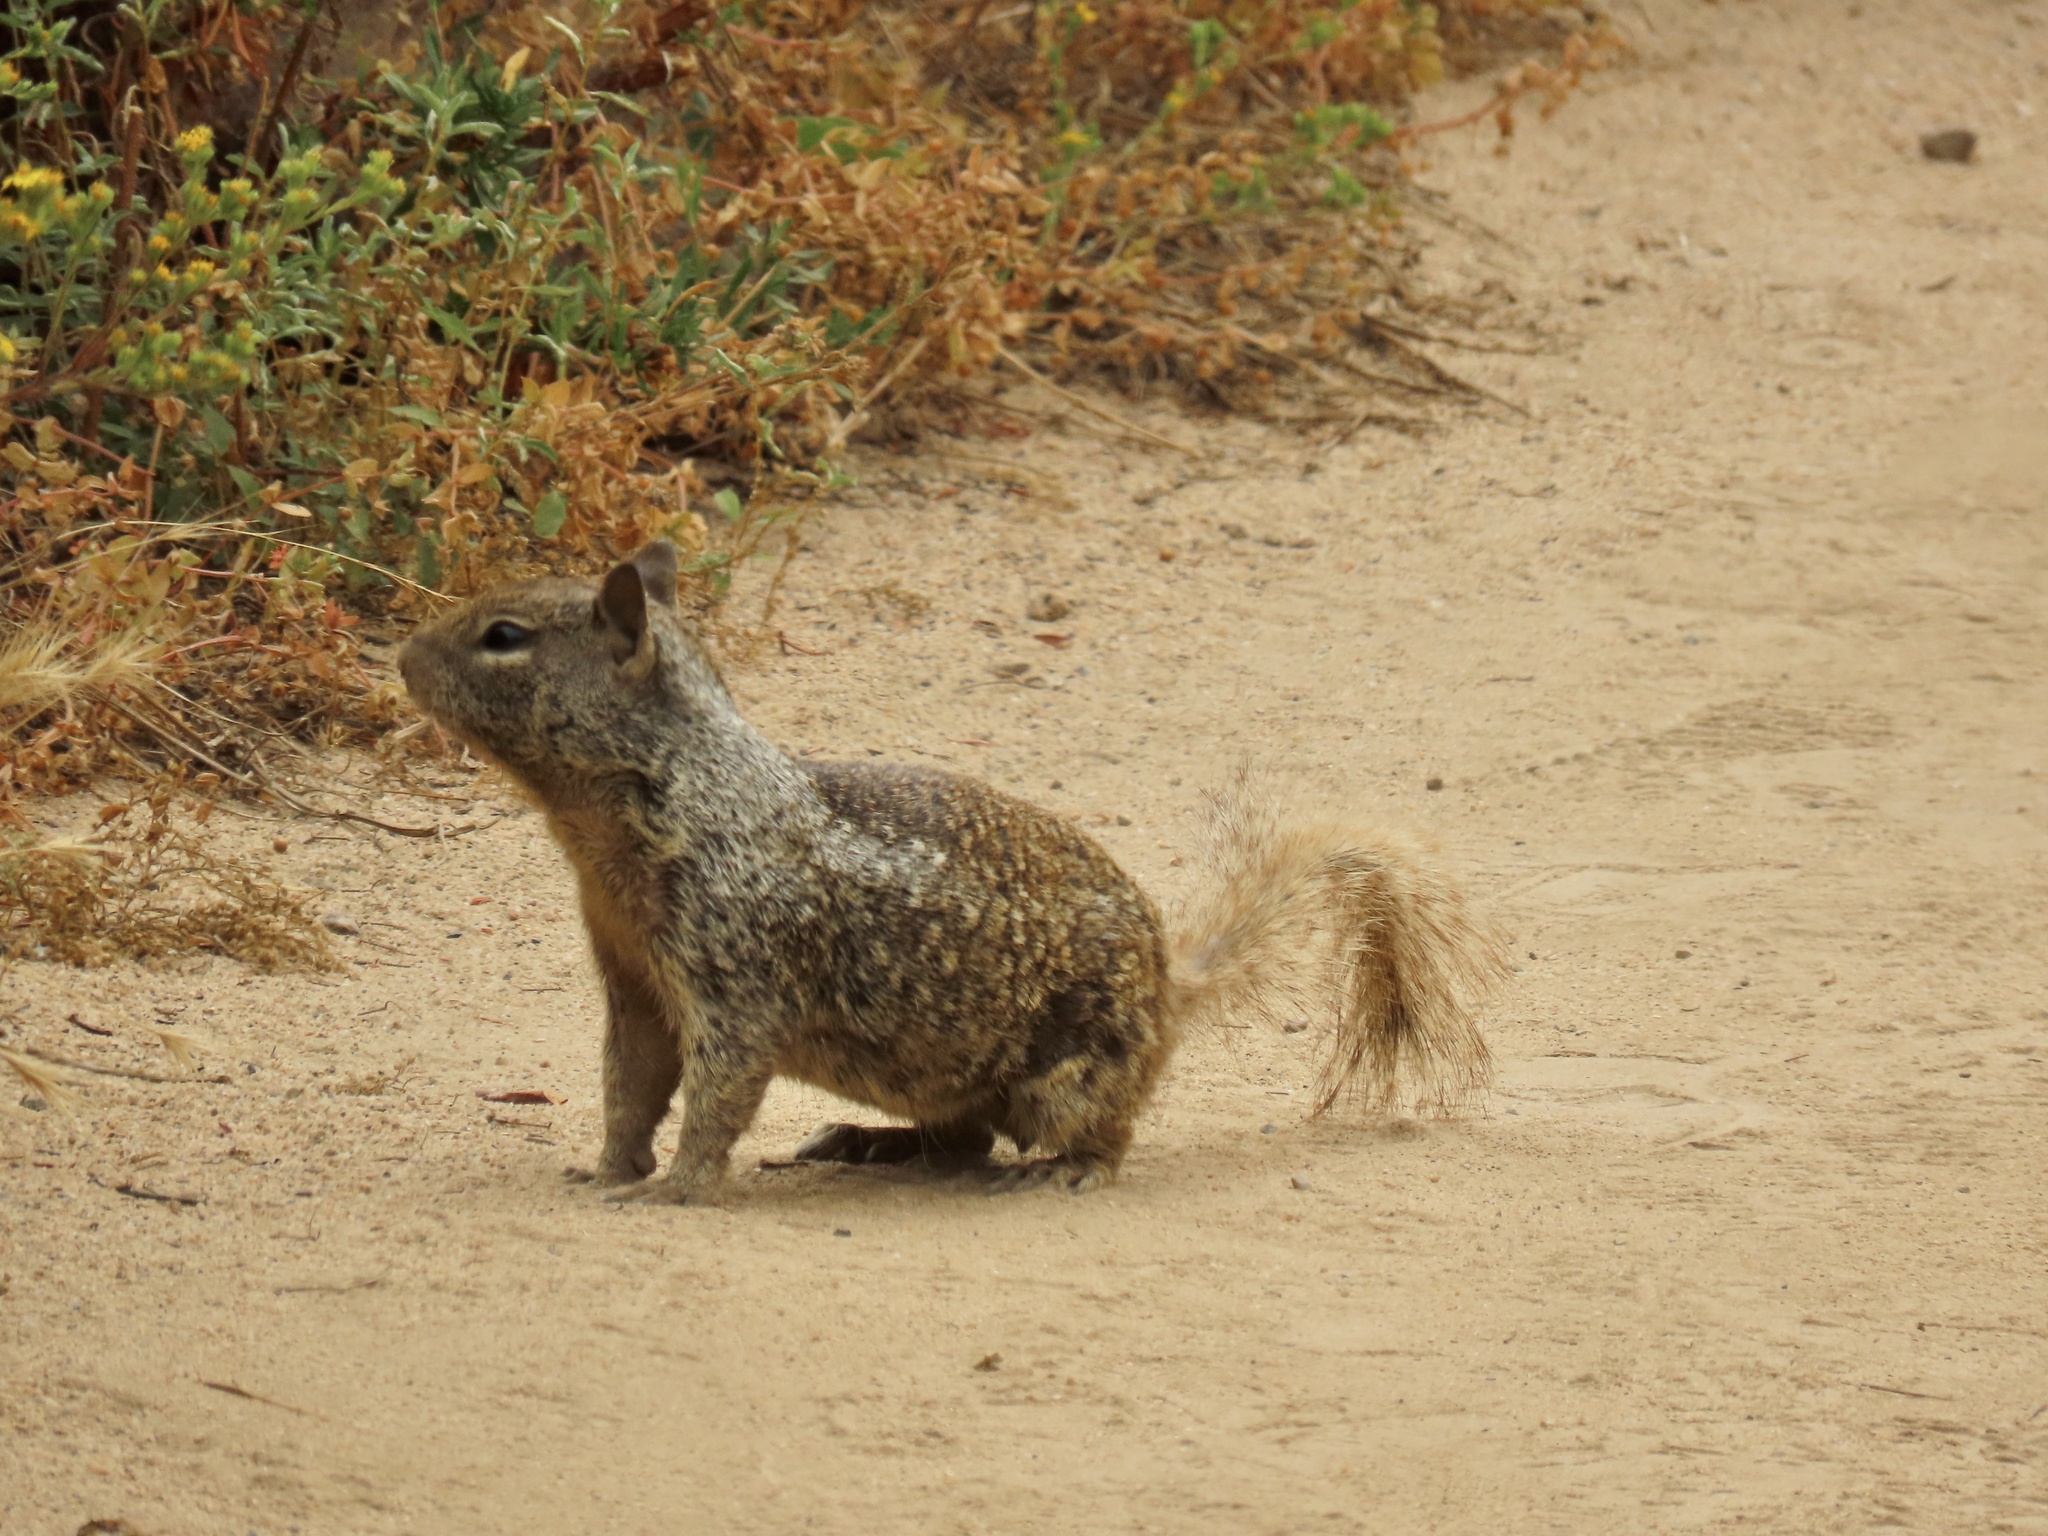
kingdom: Animalia
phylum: Chordata
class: Mammalia
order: Rodentia
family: Sciuridae
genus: Otospermophilus
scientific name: Otospermophilus beecheyi
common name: California ground squirrel
